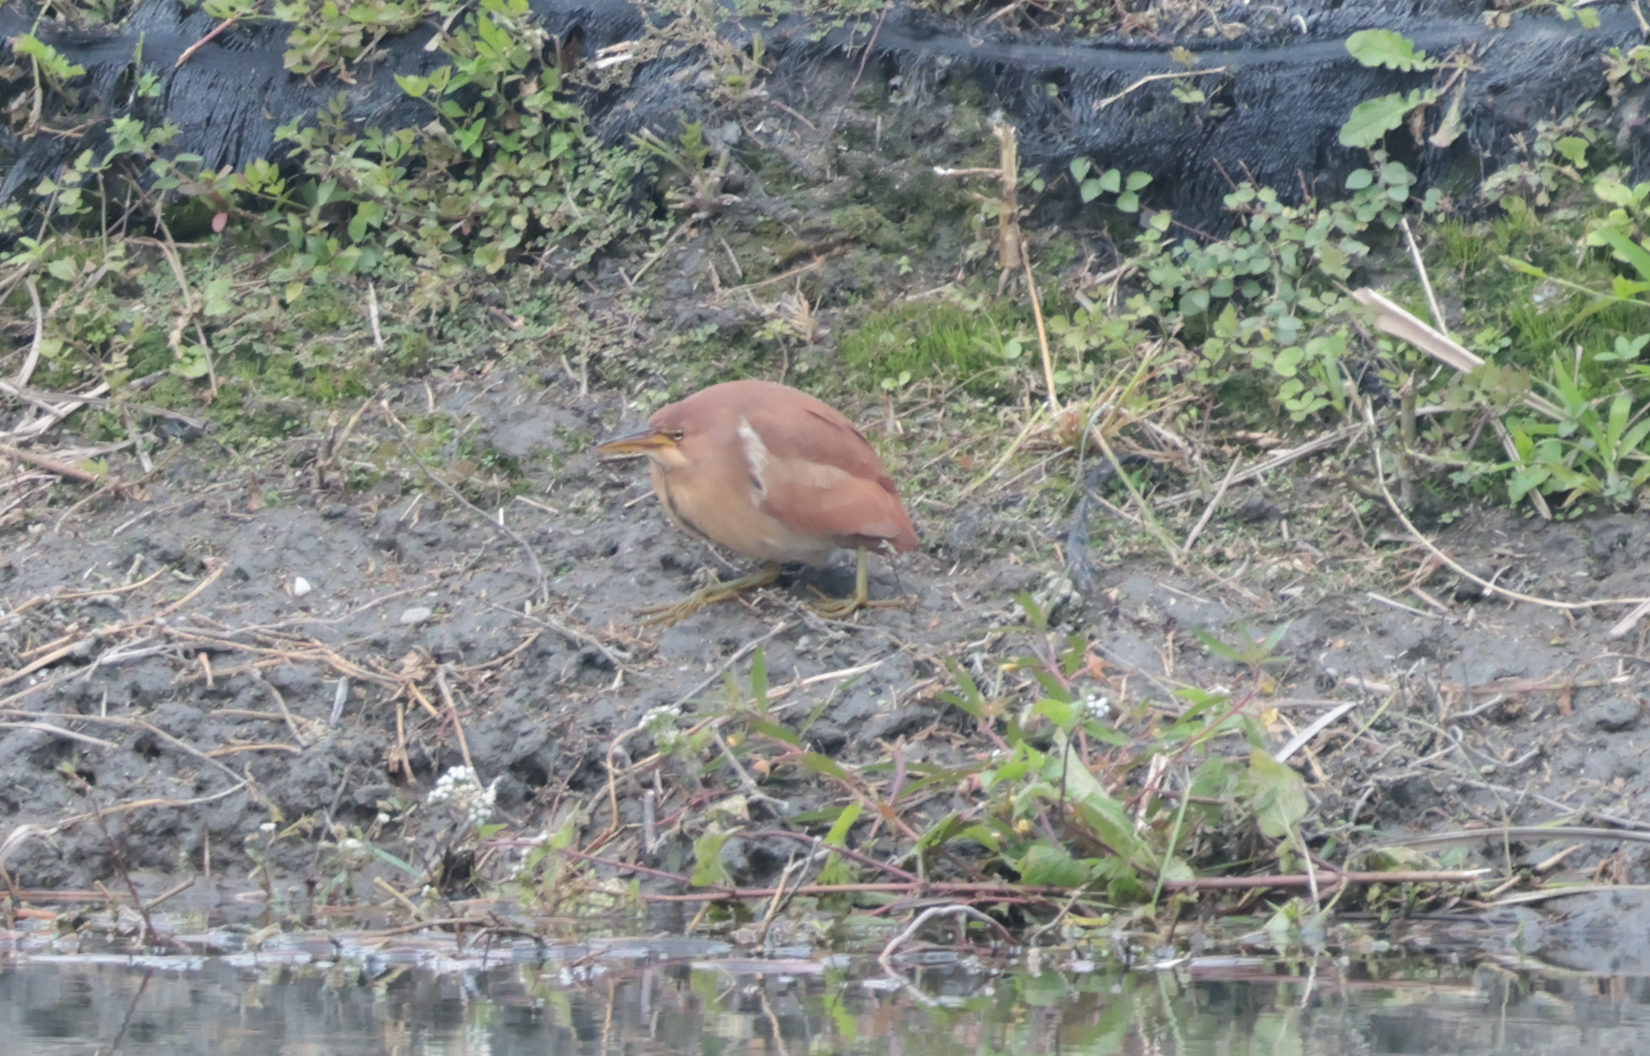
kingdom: Animalia
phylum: Chordata
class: Aves
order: Pelecaniformes
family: Ardeidae
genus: Ixobrychus
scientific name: Ixobrychus cinnamomeus
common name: Cinnamon bittern
